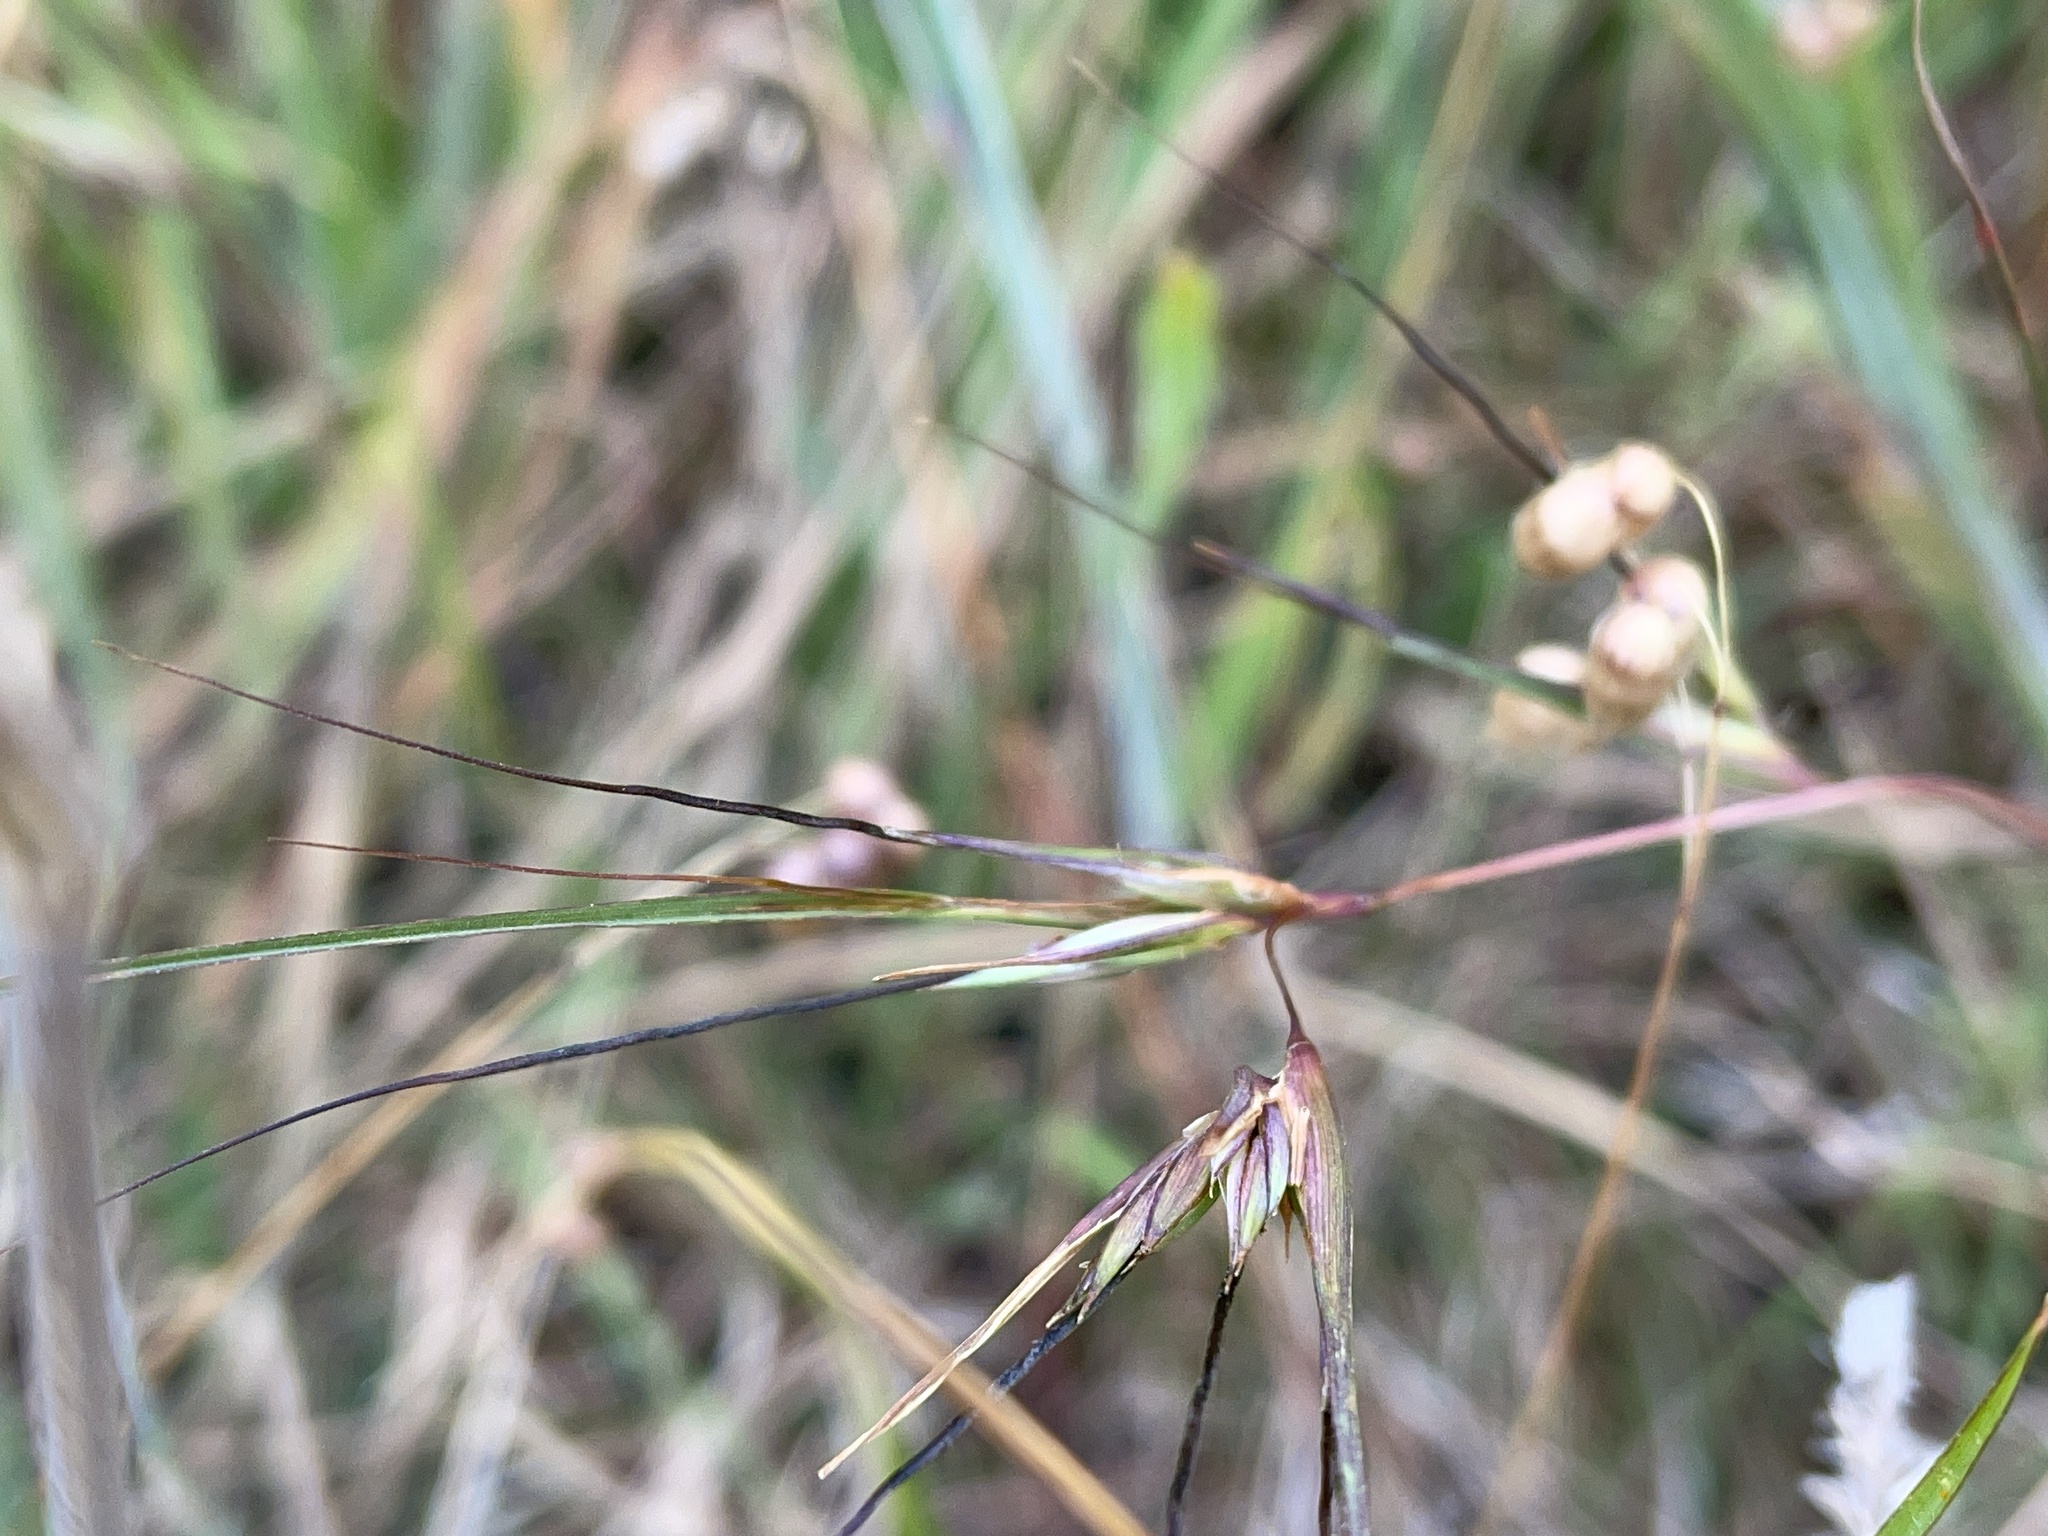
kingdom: Plantae
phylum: Tracheophyta
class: Liliopsida
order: Poales
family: Poaceae
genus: Themeda
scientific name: Themeda triandra
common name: Kangaroo grass
